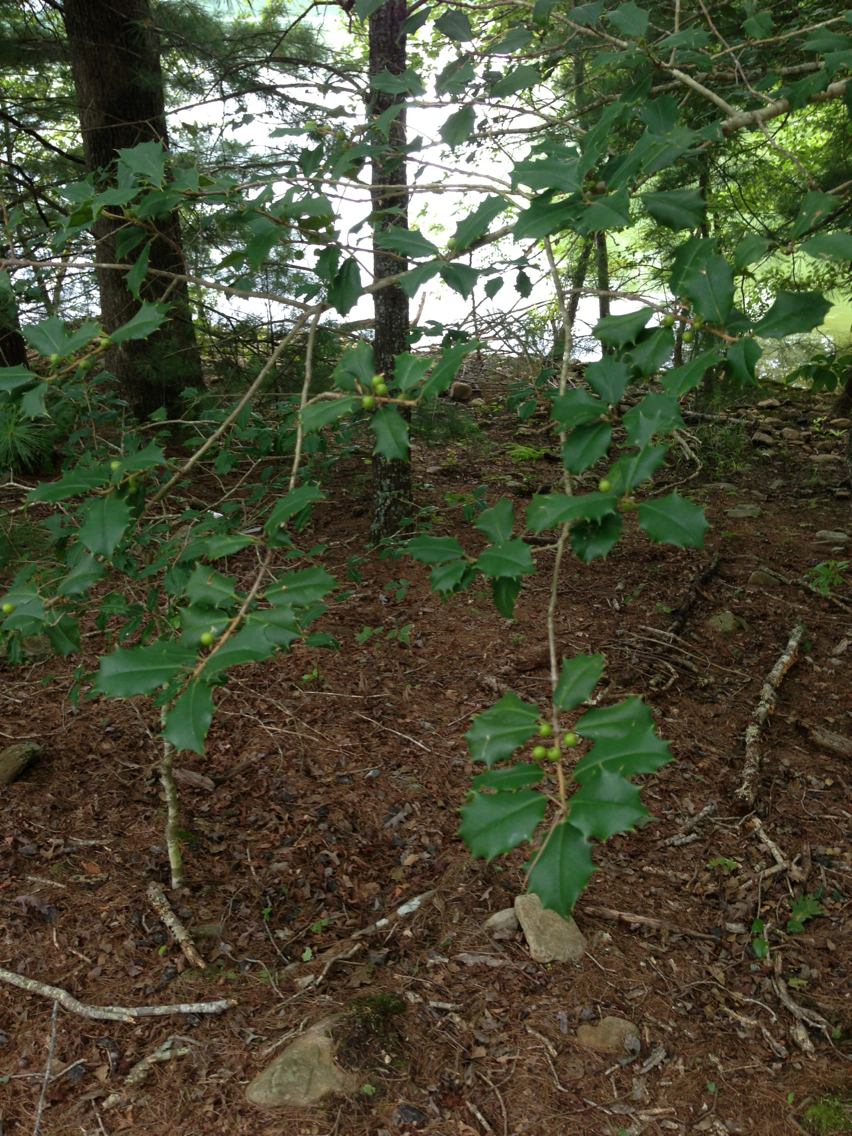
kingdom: Plantae
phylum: Tracheophyta
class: Magnoliopsida
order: Aquifoliales
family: Aquifoliaceae
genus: Ilex
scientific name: Ilex opaca
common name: American holly
